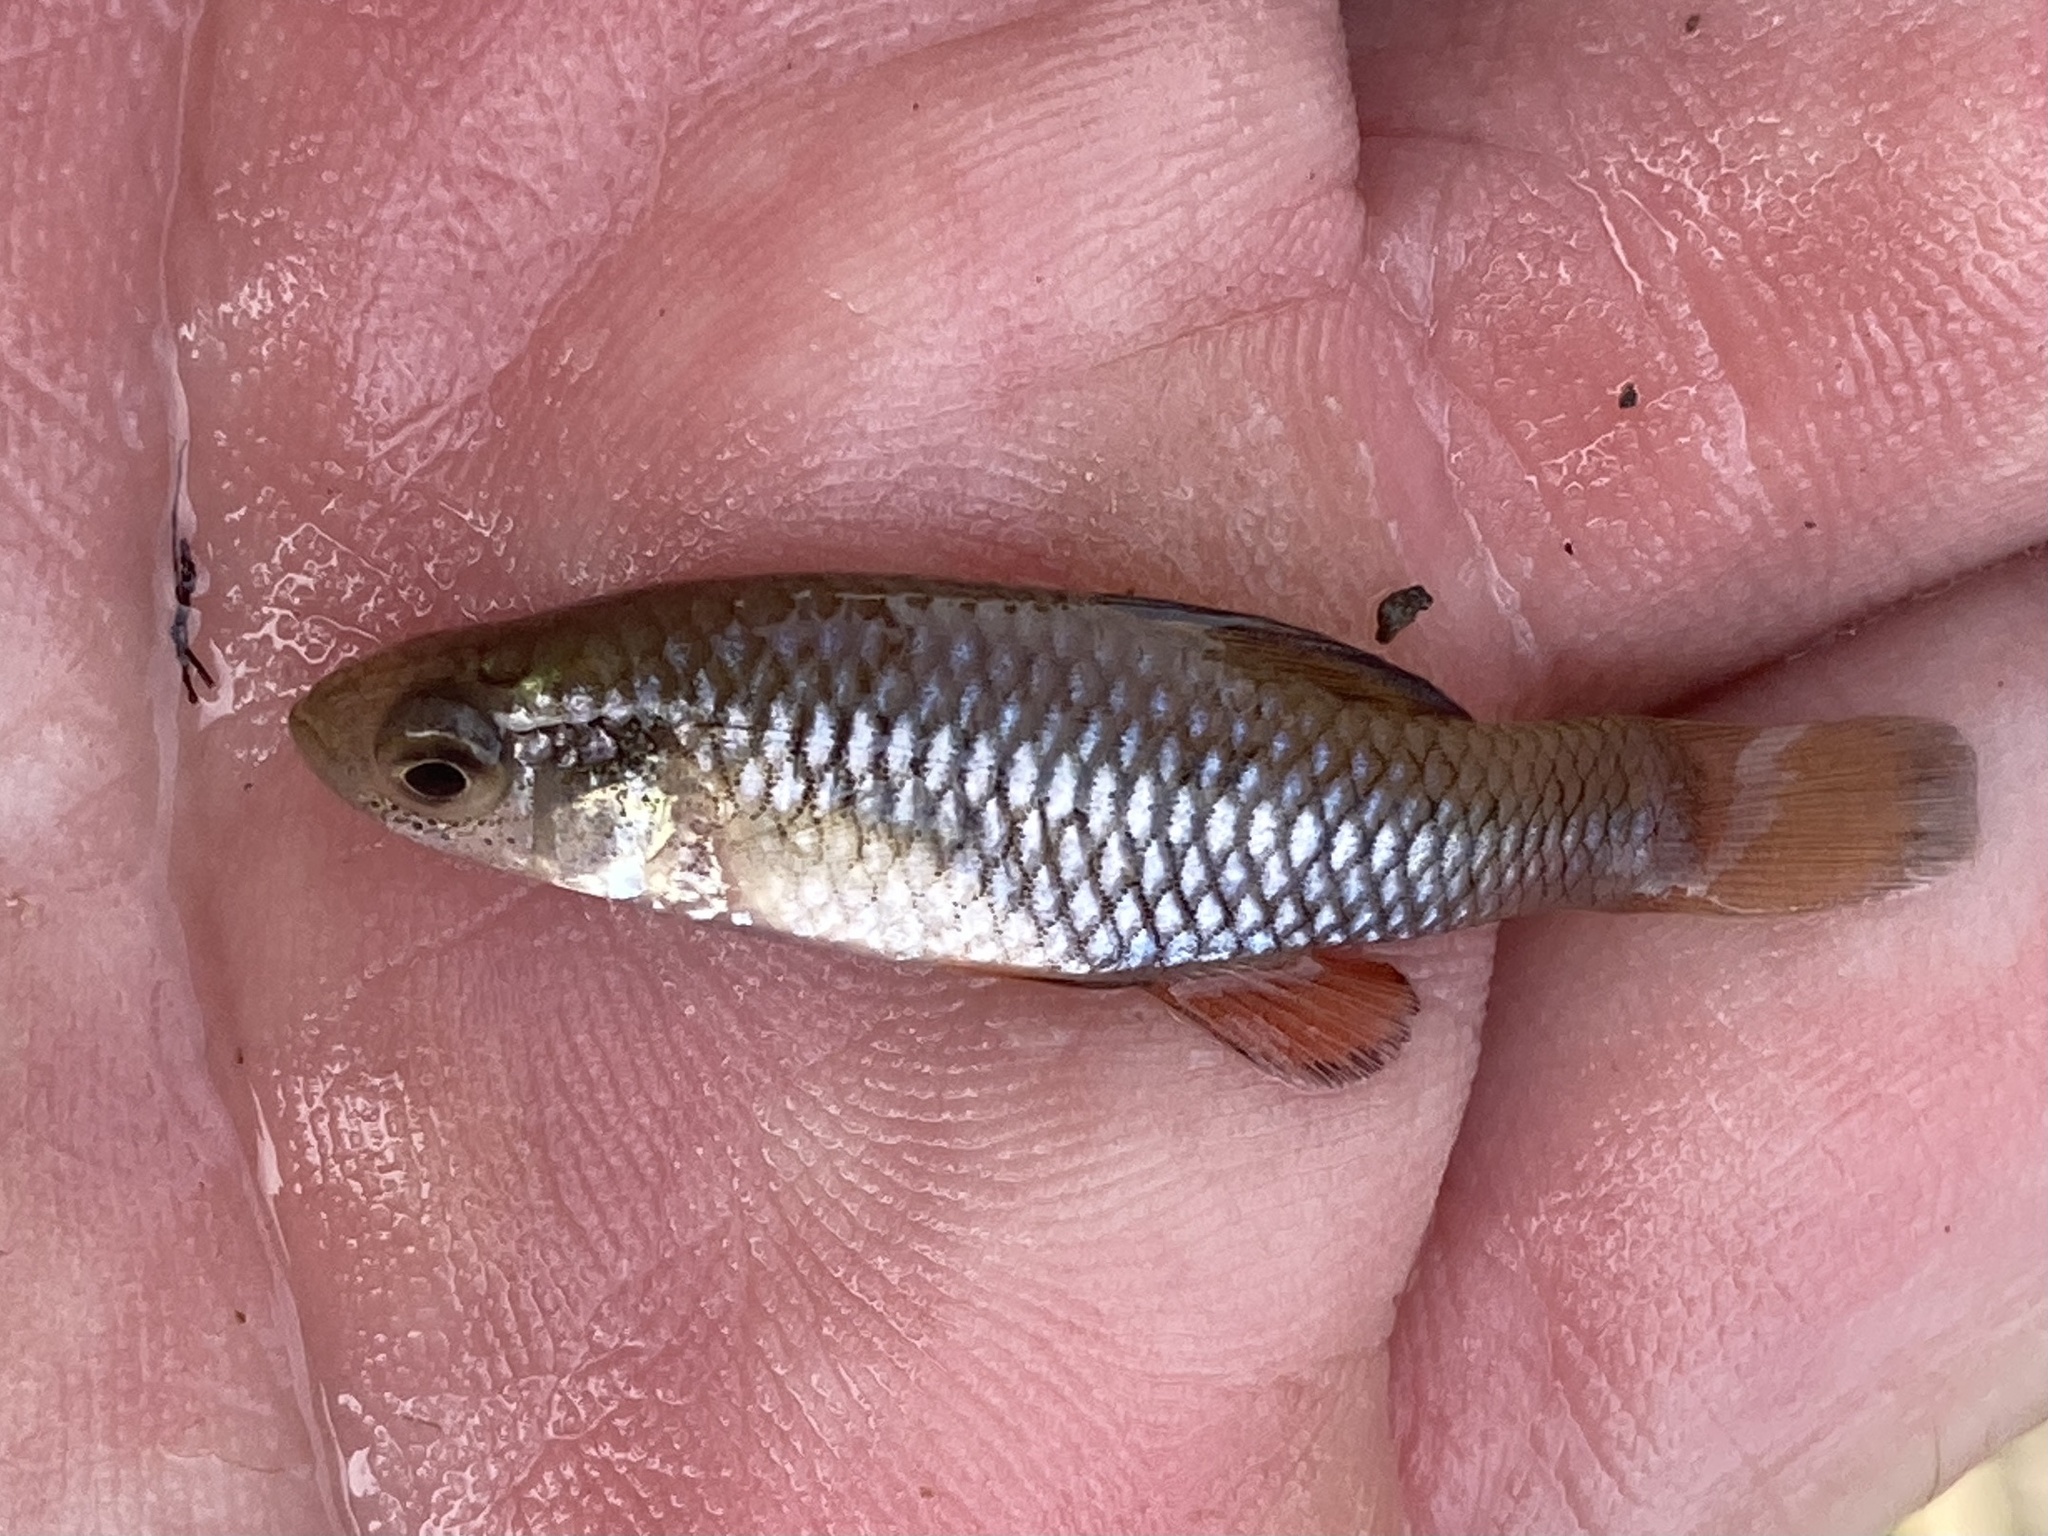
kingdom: Animalia
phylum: Chordata
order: Cyprinodontiformes
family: Fundulidae
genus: Lucania
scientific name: Lucania parva
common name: Rainwater killifish
